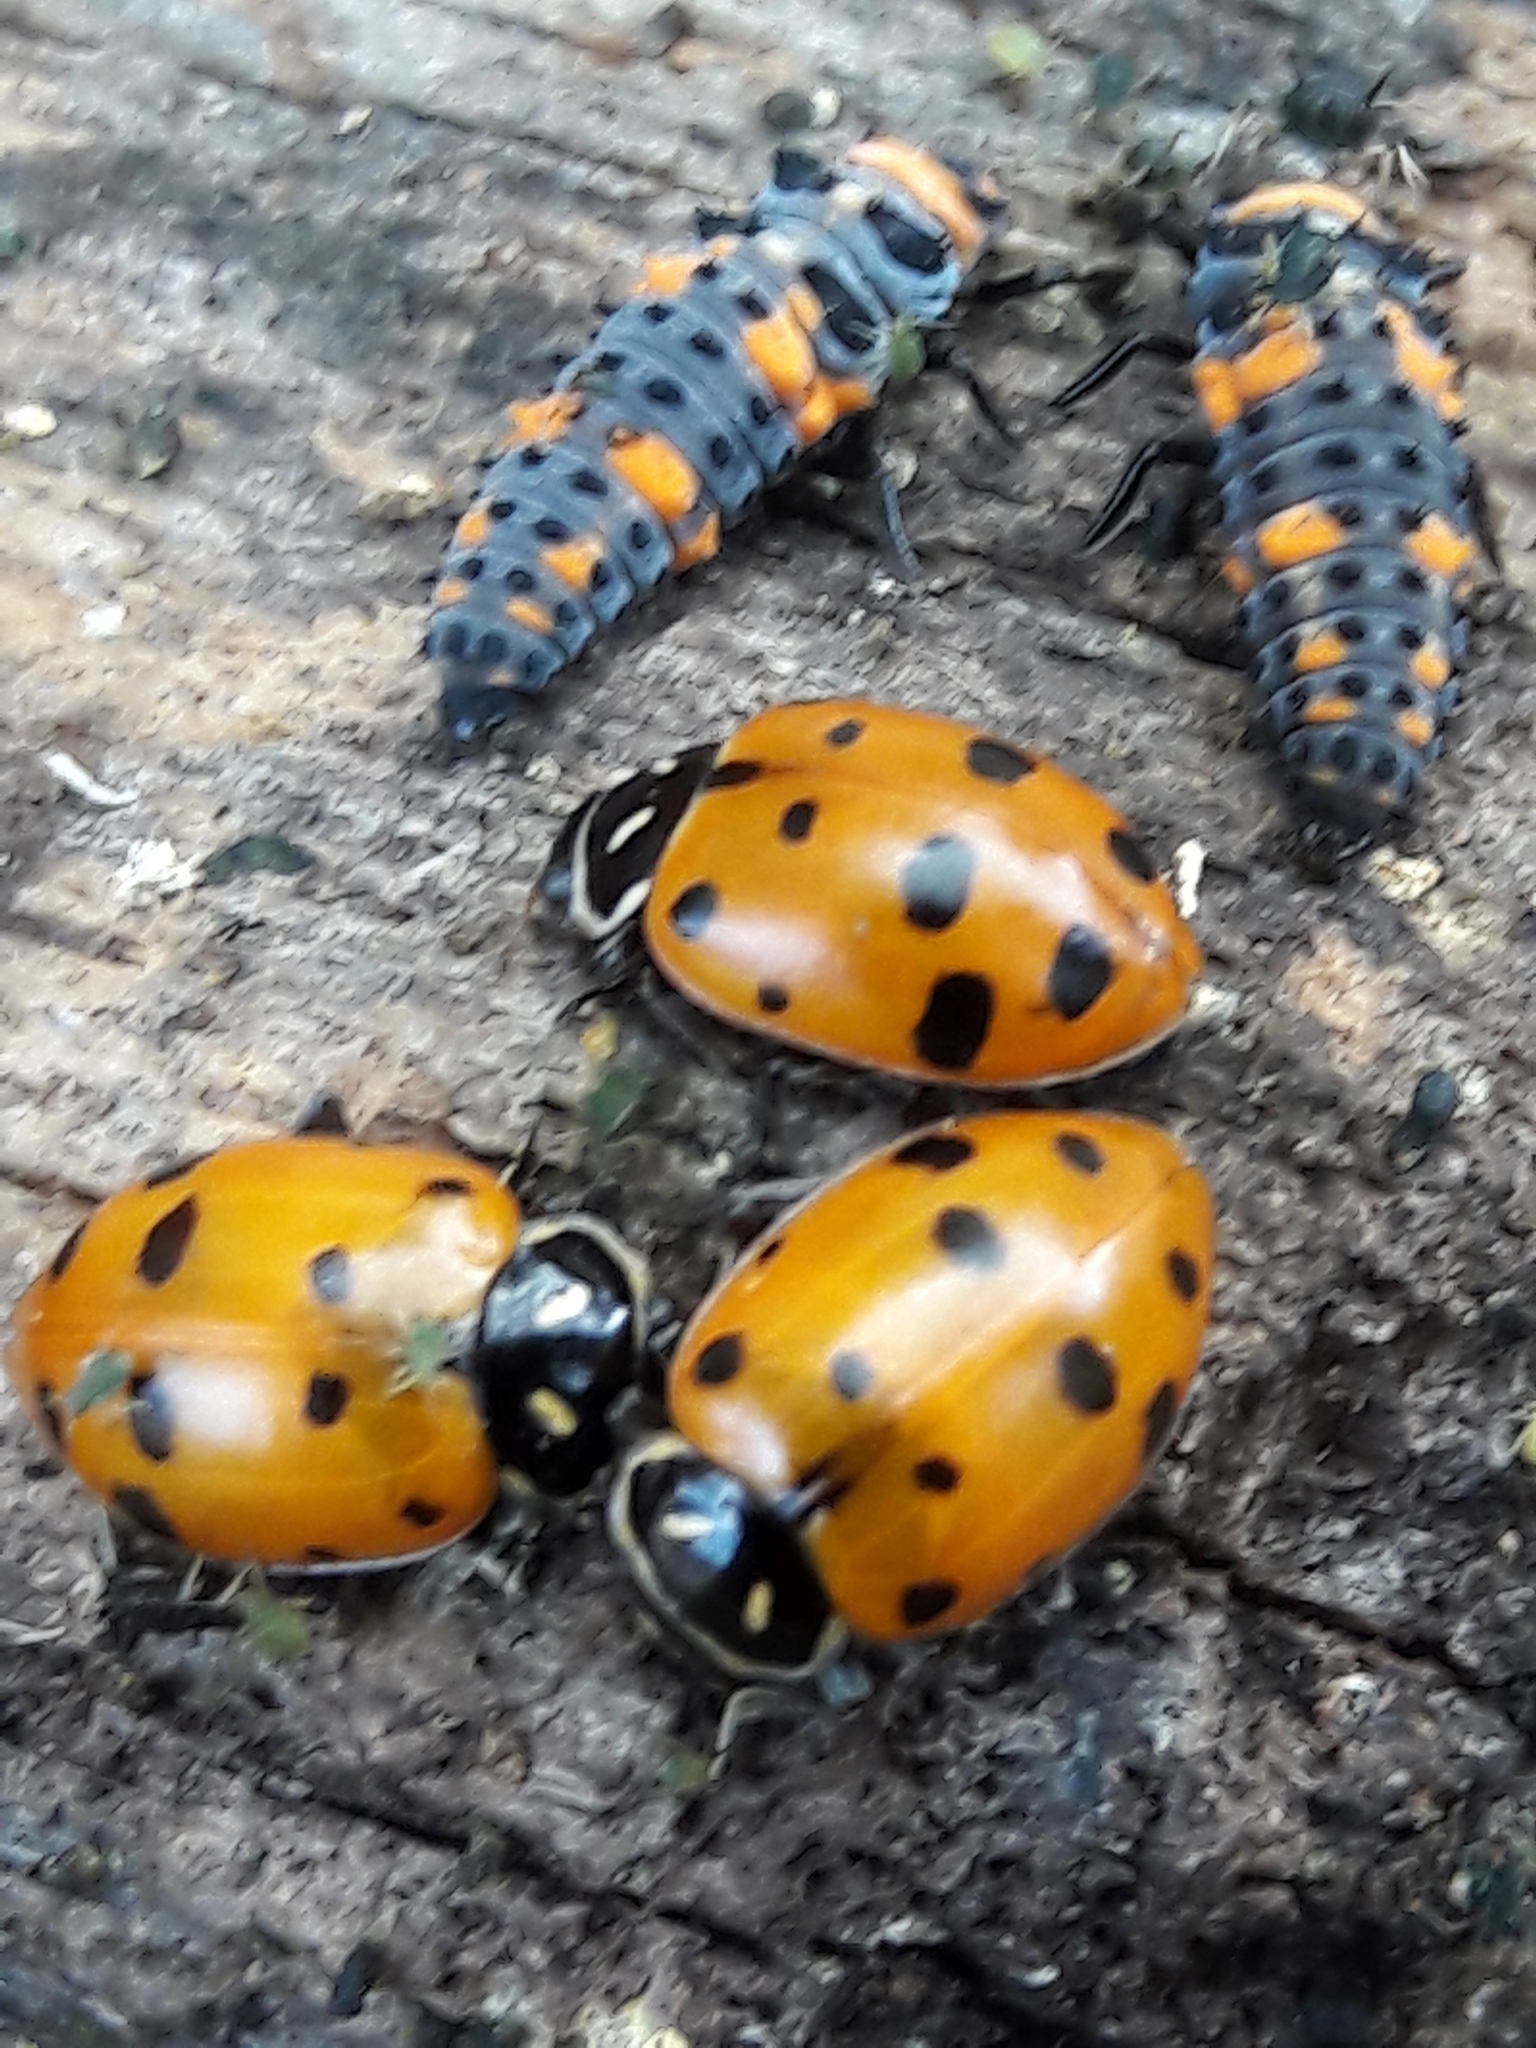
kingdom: Animalia
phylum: Arthropoda
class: Insecta
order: Coleoptera
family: Coccinellidae
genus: Hippodamia
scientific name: Hippodamia convergens
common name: Convergent lady beetle
